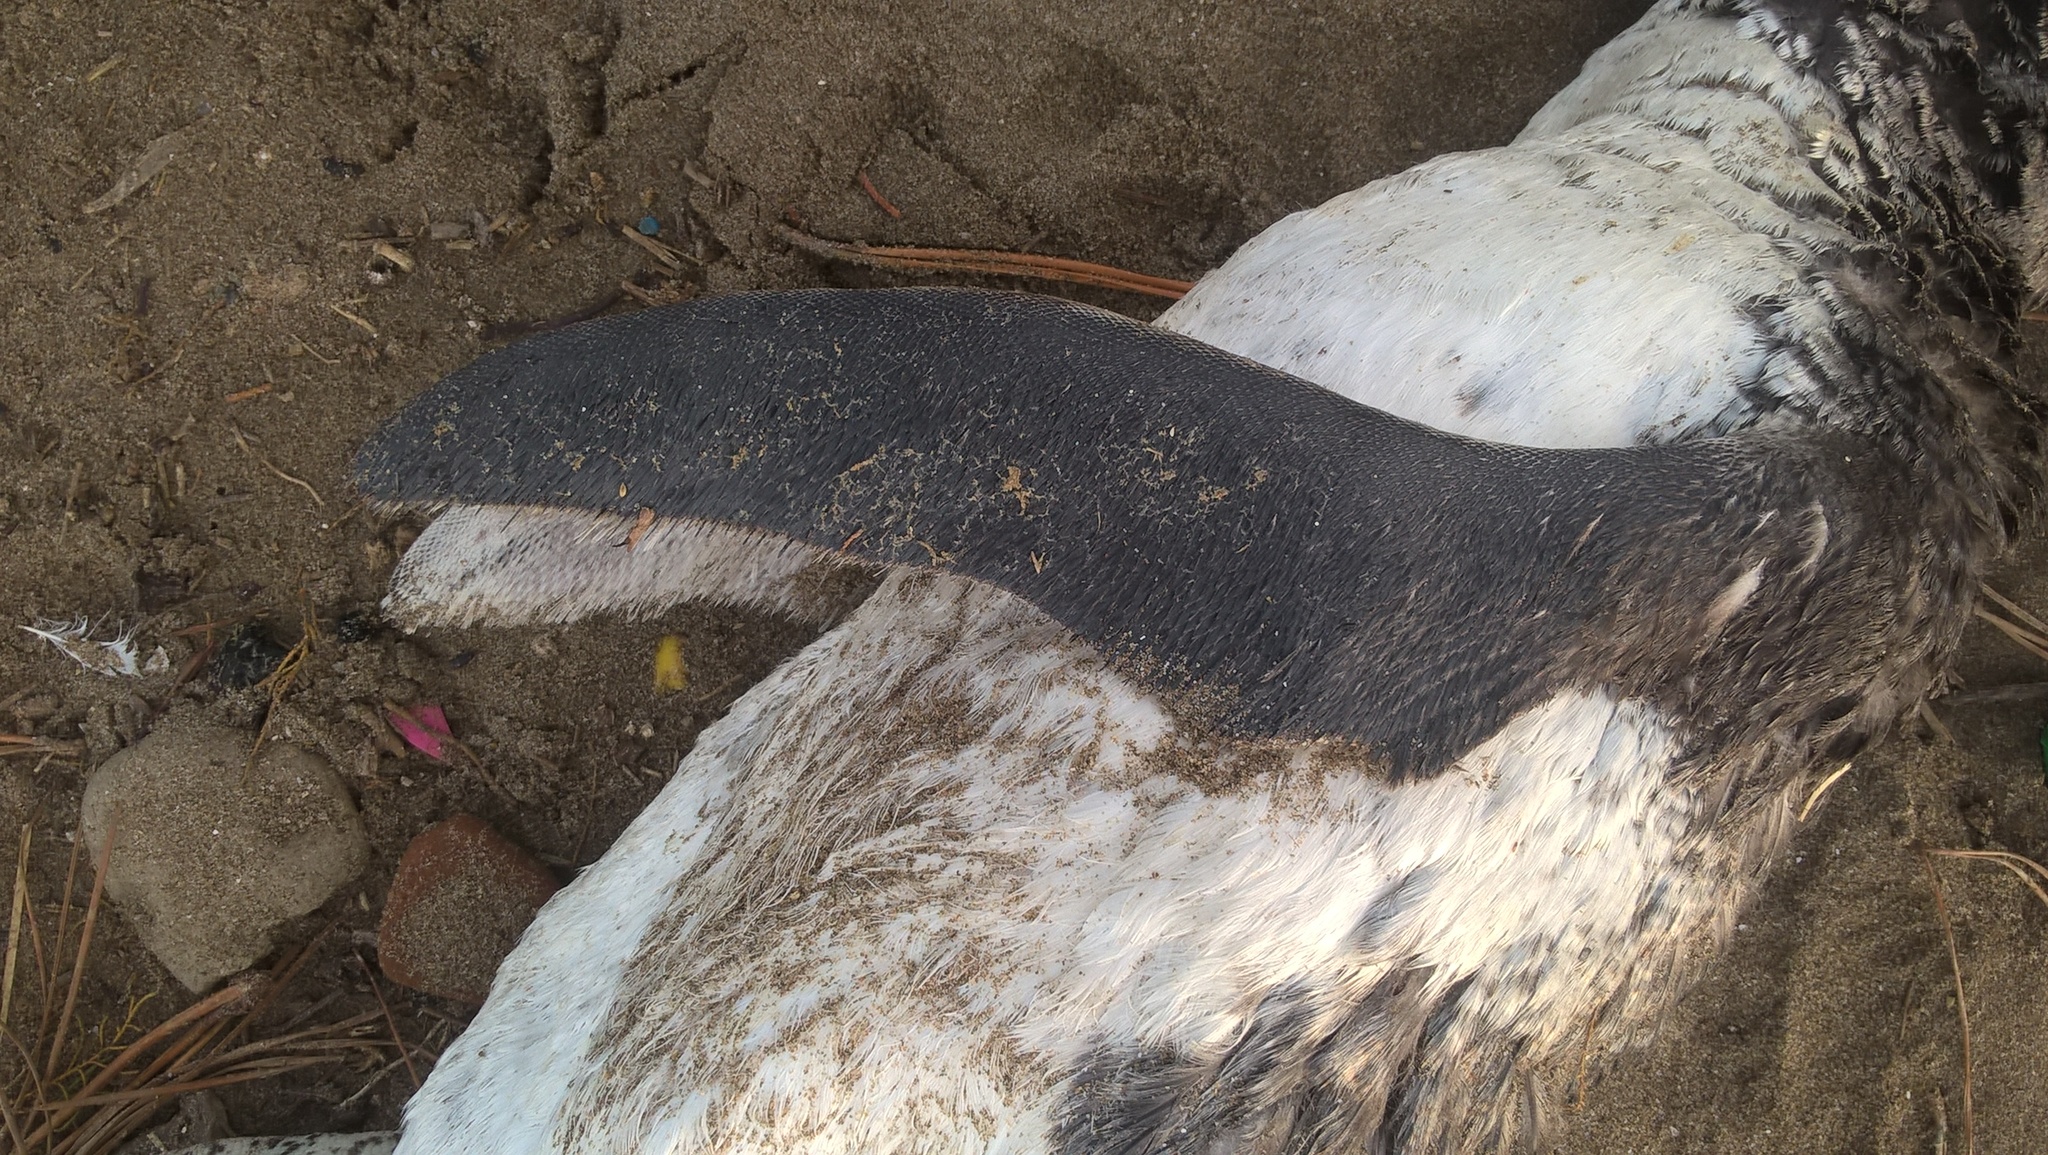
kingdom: Animalia
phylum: Chordata
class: Aves
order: Sphenisciformes
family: Spheniscidae
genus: Spheniscus
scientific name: Spheniscus magellanicus
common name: Magellanic penguin
